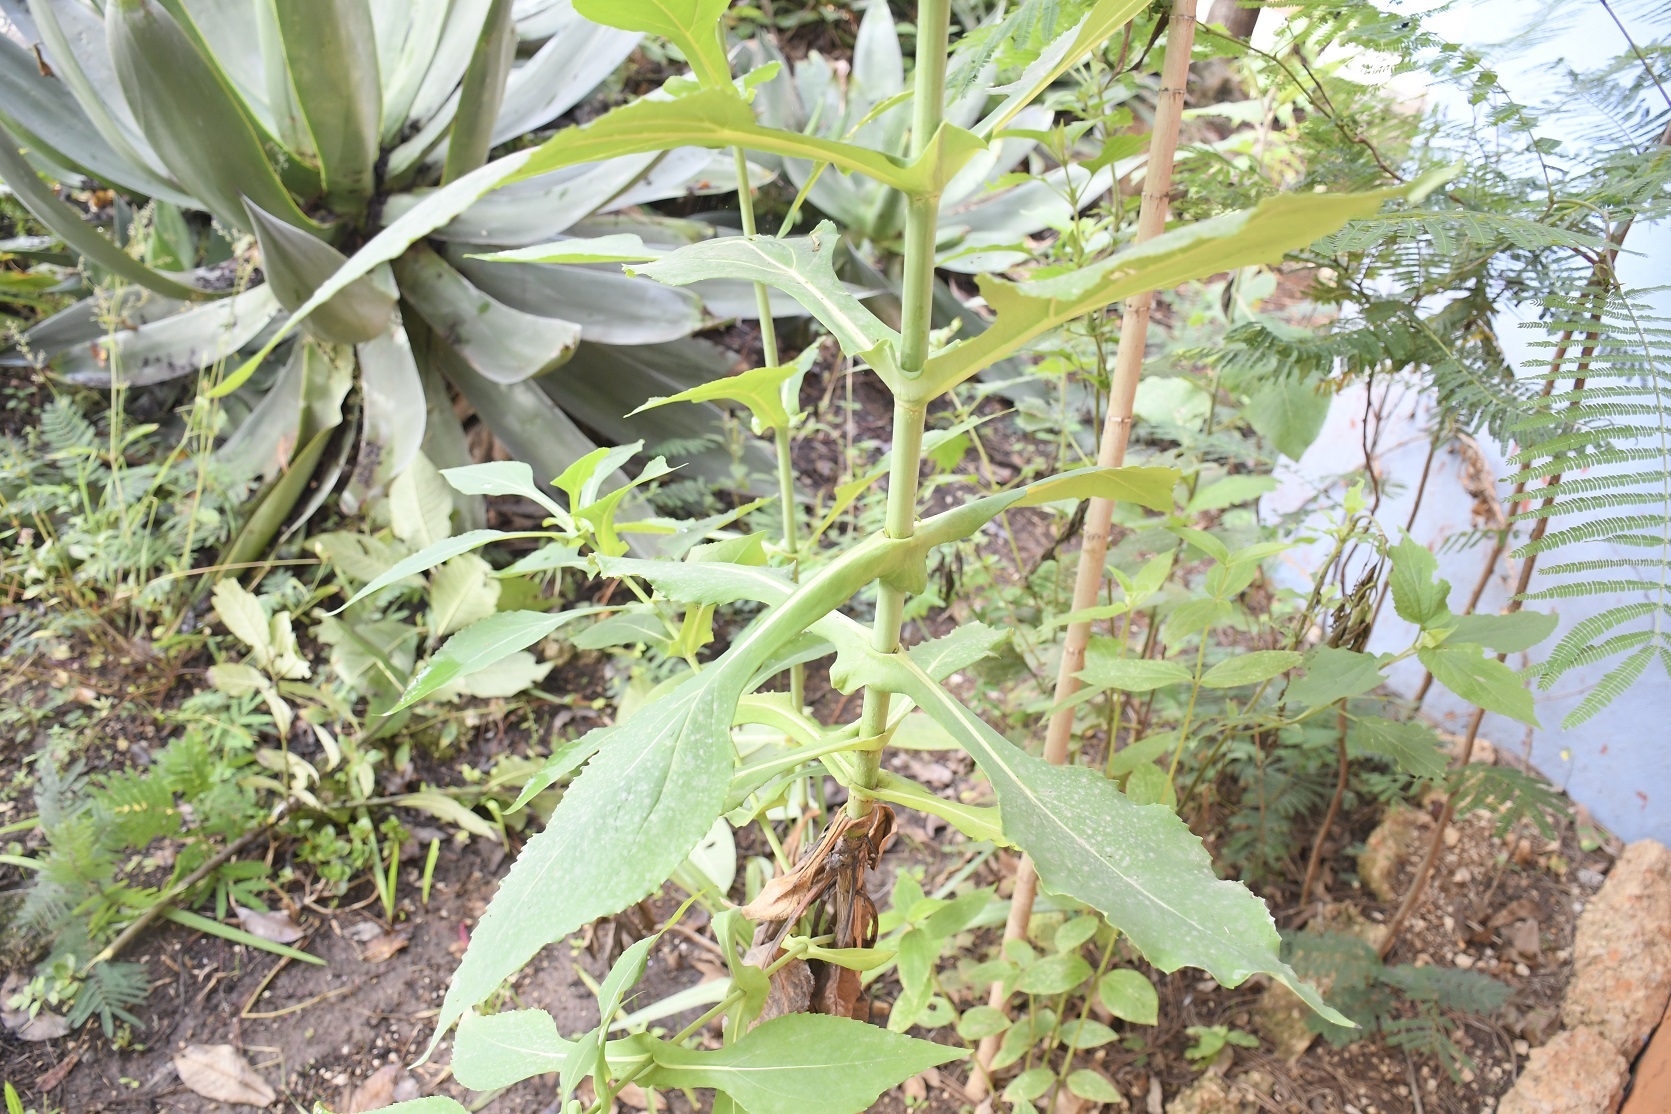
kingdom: Plantae
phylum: Tracheophyta
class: Magnoliopsida
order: Asterales
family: Asteraceae
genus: Desmanthodium
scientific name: Desmanthodium perfoliatum
